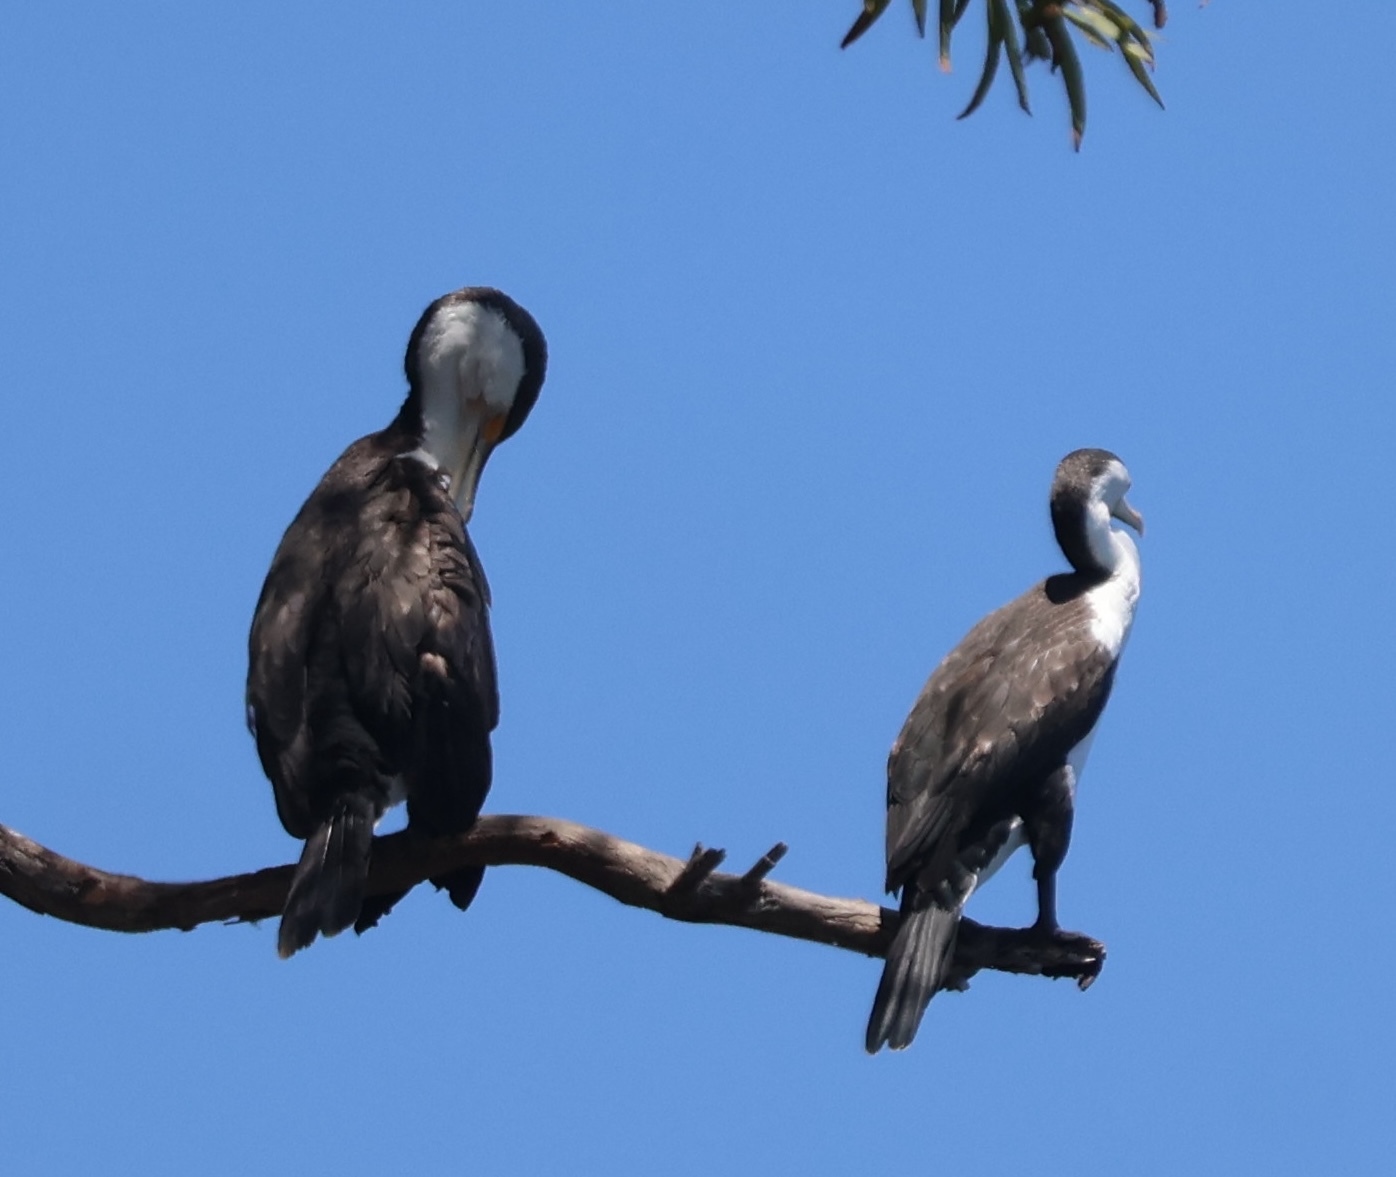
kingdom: Animalia
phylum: Chordata
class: Aves
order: Suliformes
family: Phalacrocoracidae
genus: Phalacrocorax
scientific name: Phalacrocorax varius
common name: Pied cormorant
